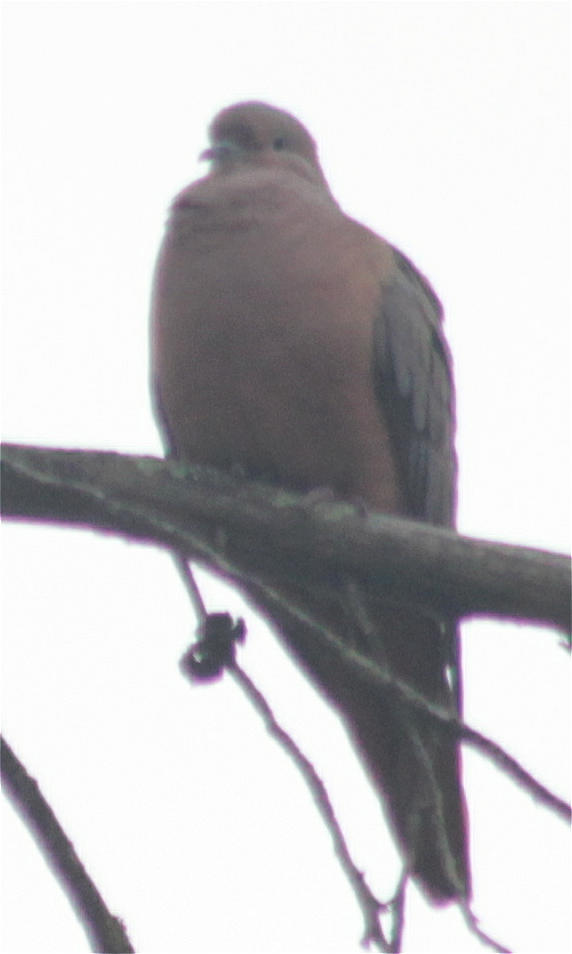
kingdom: Animalia
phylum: Chordata
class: Aves
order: Columbiformes
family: Columbidae
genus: Zenaida
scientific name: Zenaida auriculata
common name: Eared dove
